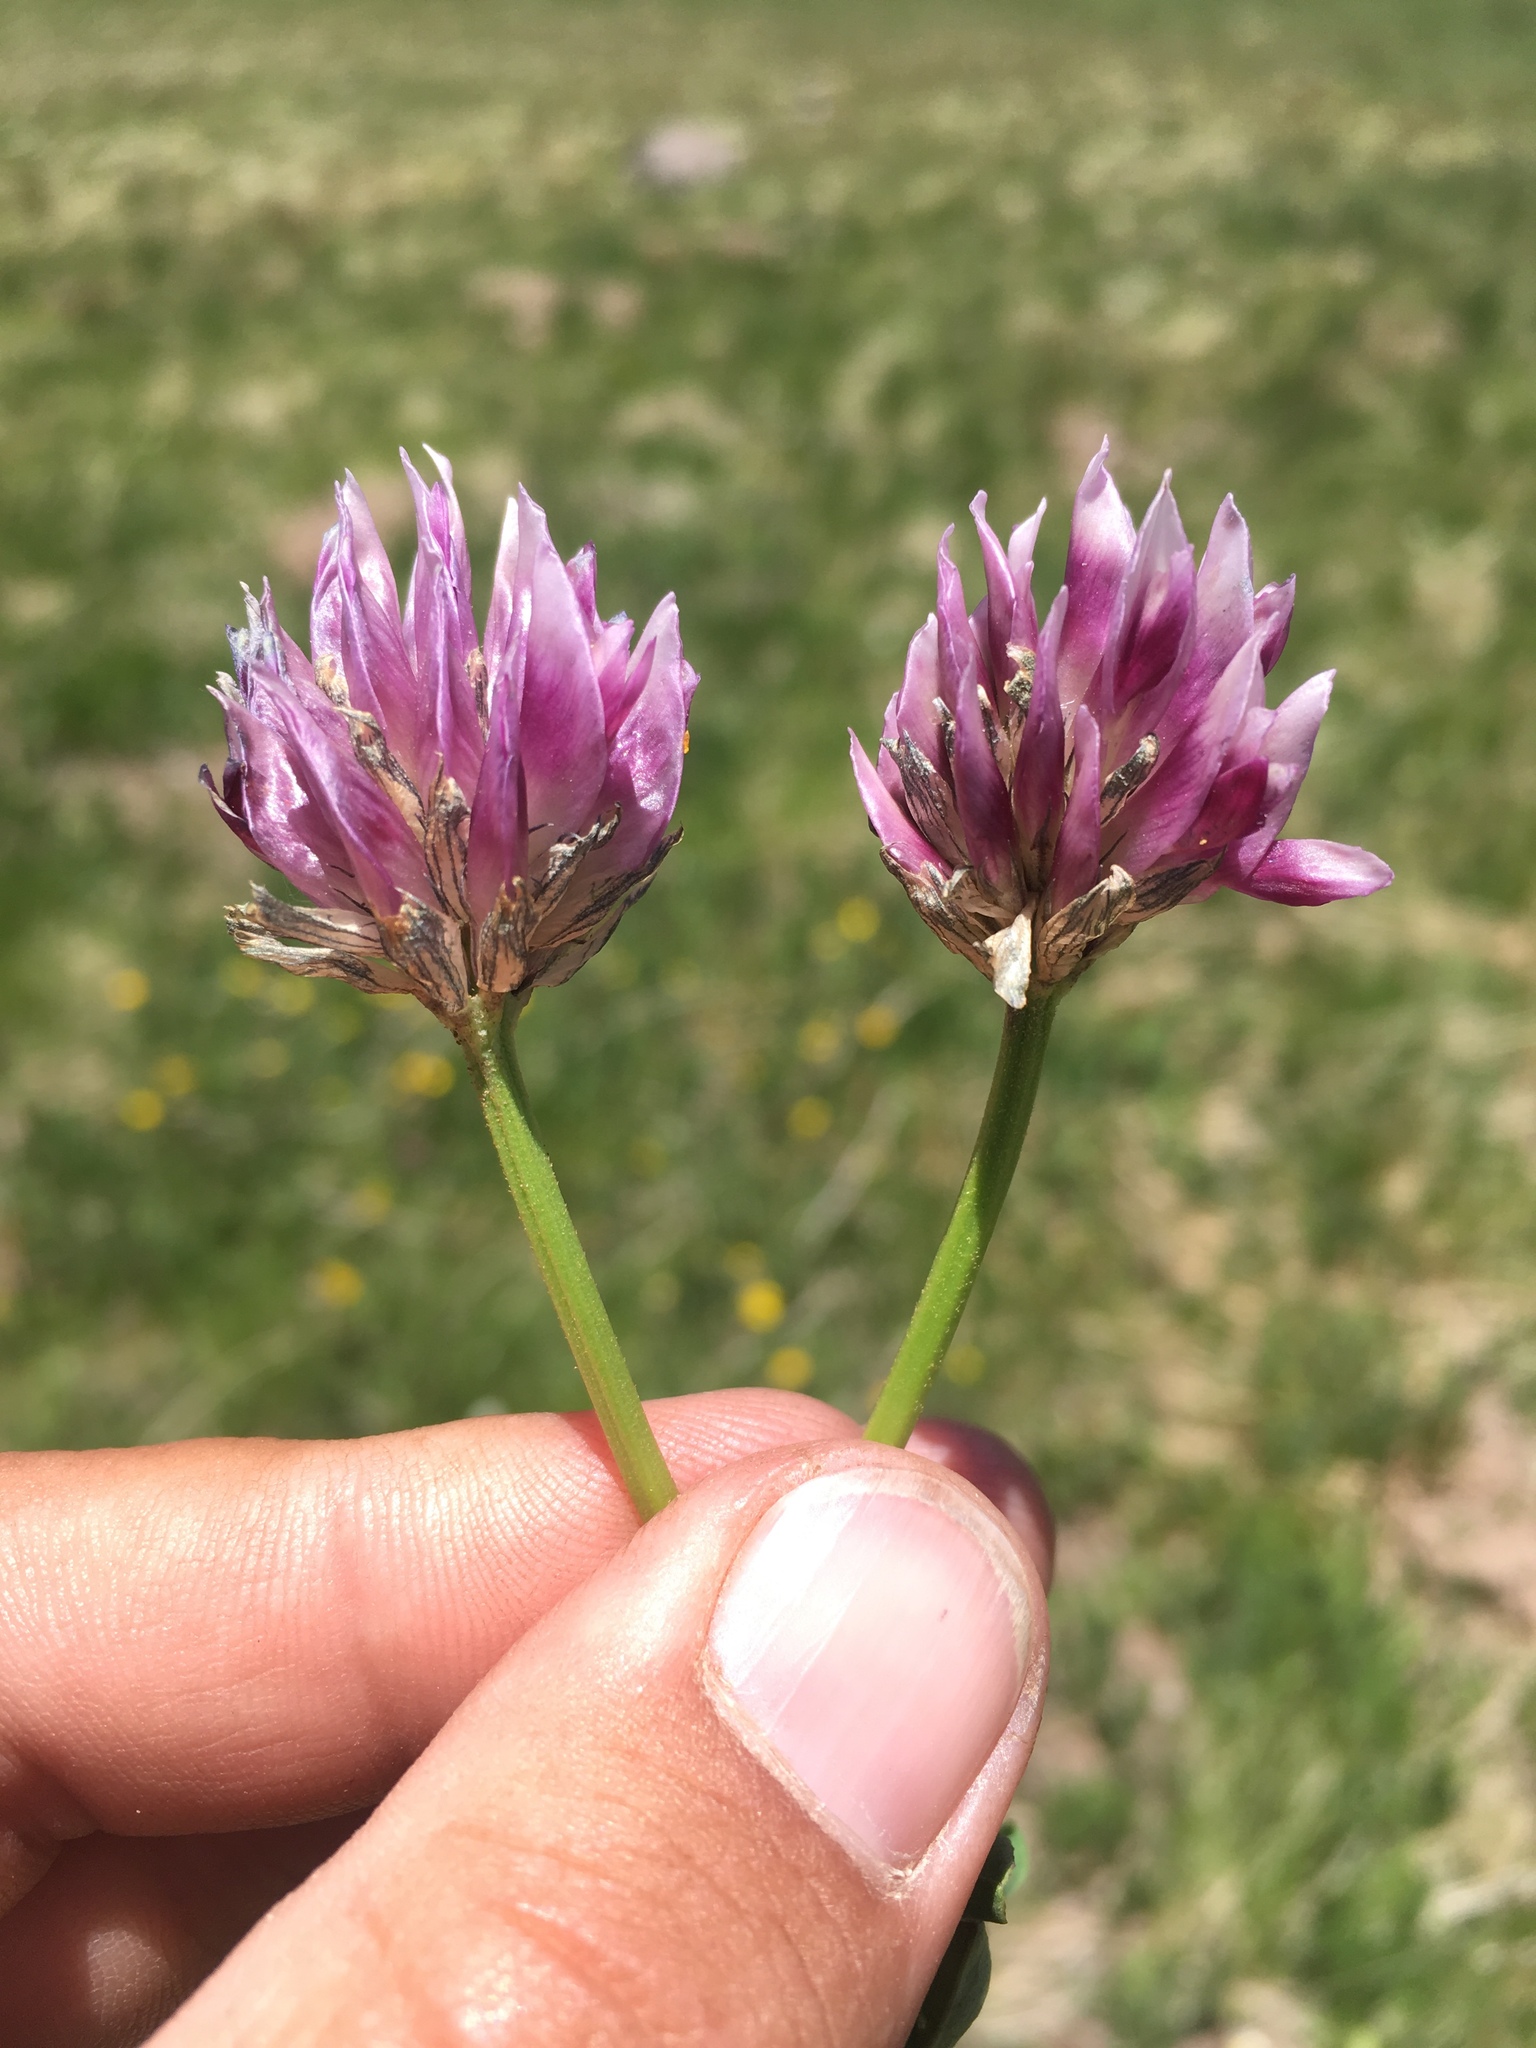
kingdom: Plantae
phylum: Tracheophyta
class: Magnoliopsida
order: Fabales
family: Fabaceae
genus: Trifolium
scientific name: Trifolium parryi
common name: Parry's clover
